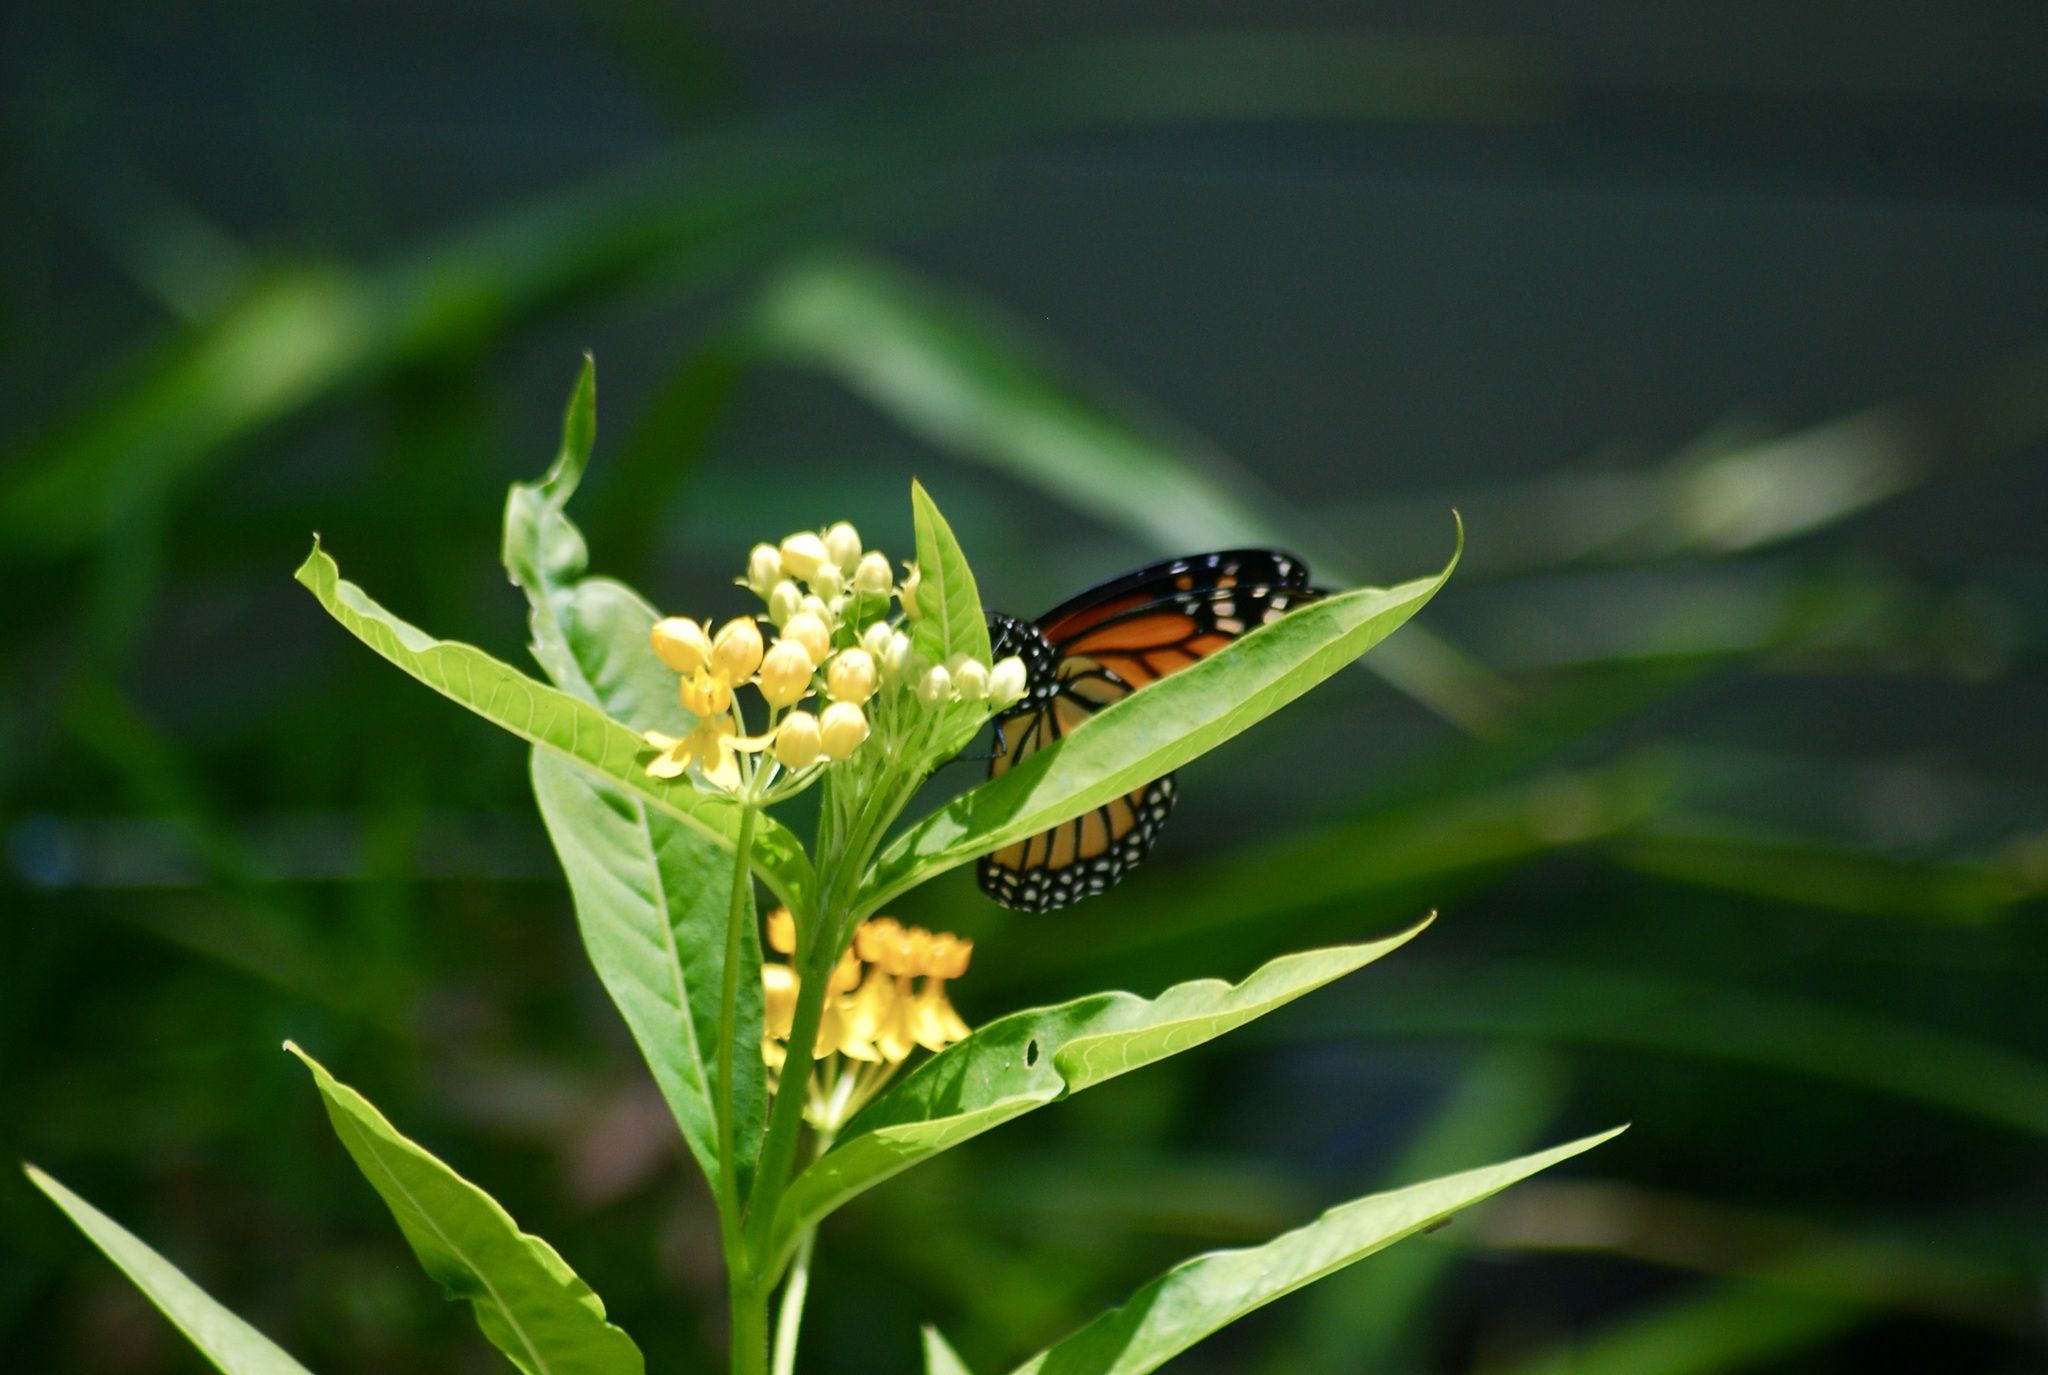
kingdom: Plantae
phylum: Tracheophyta
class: Magnoliopsida
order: Gentianales
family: Apocynaceae
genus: Asclepias
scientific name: Asclepias curassavica
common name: Bloodflower
